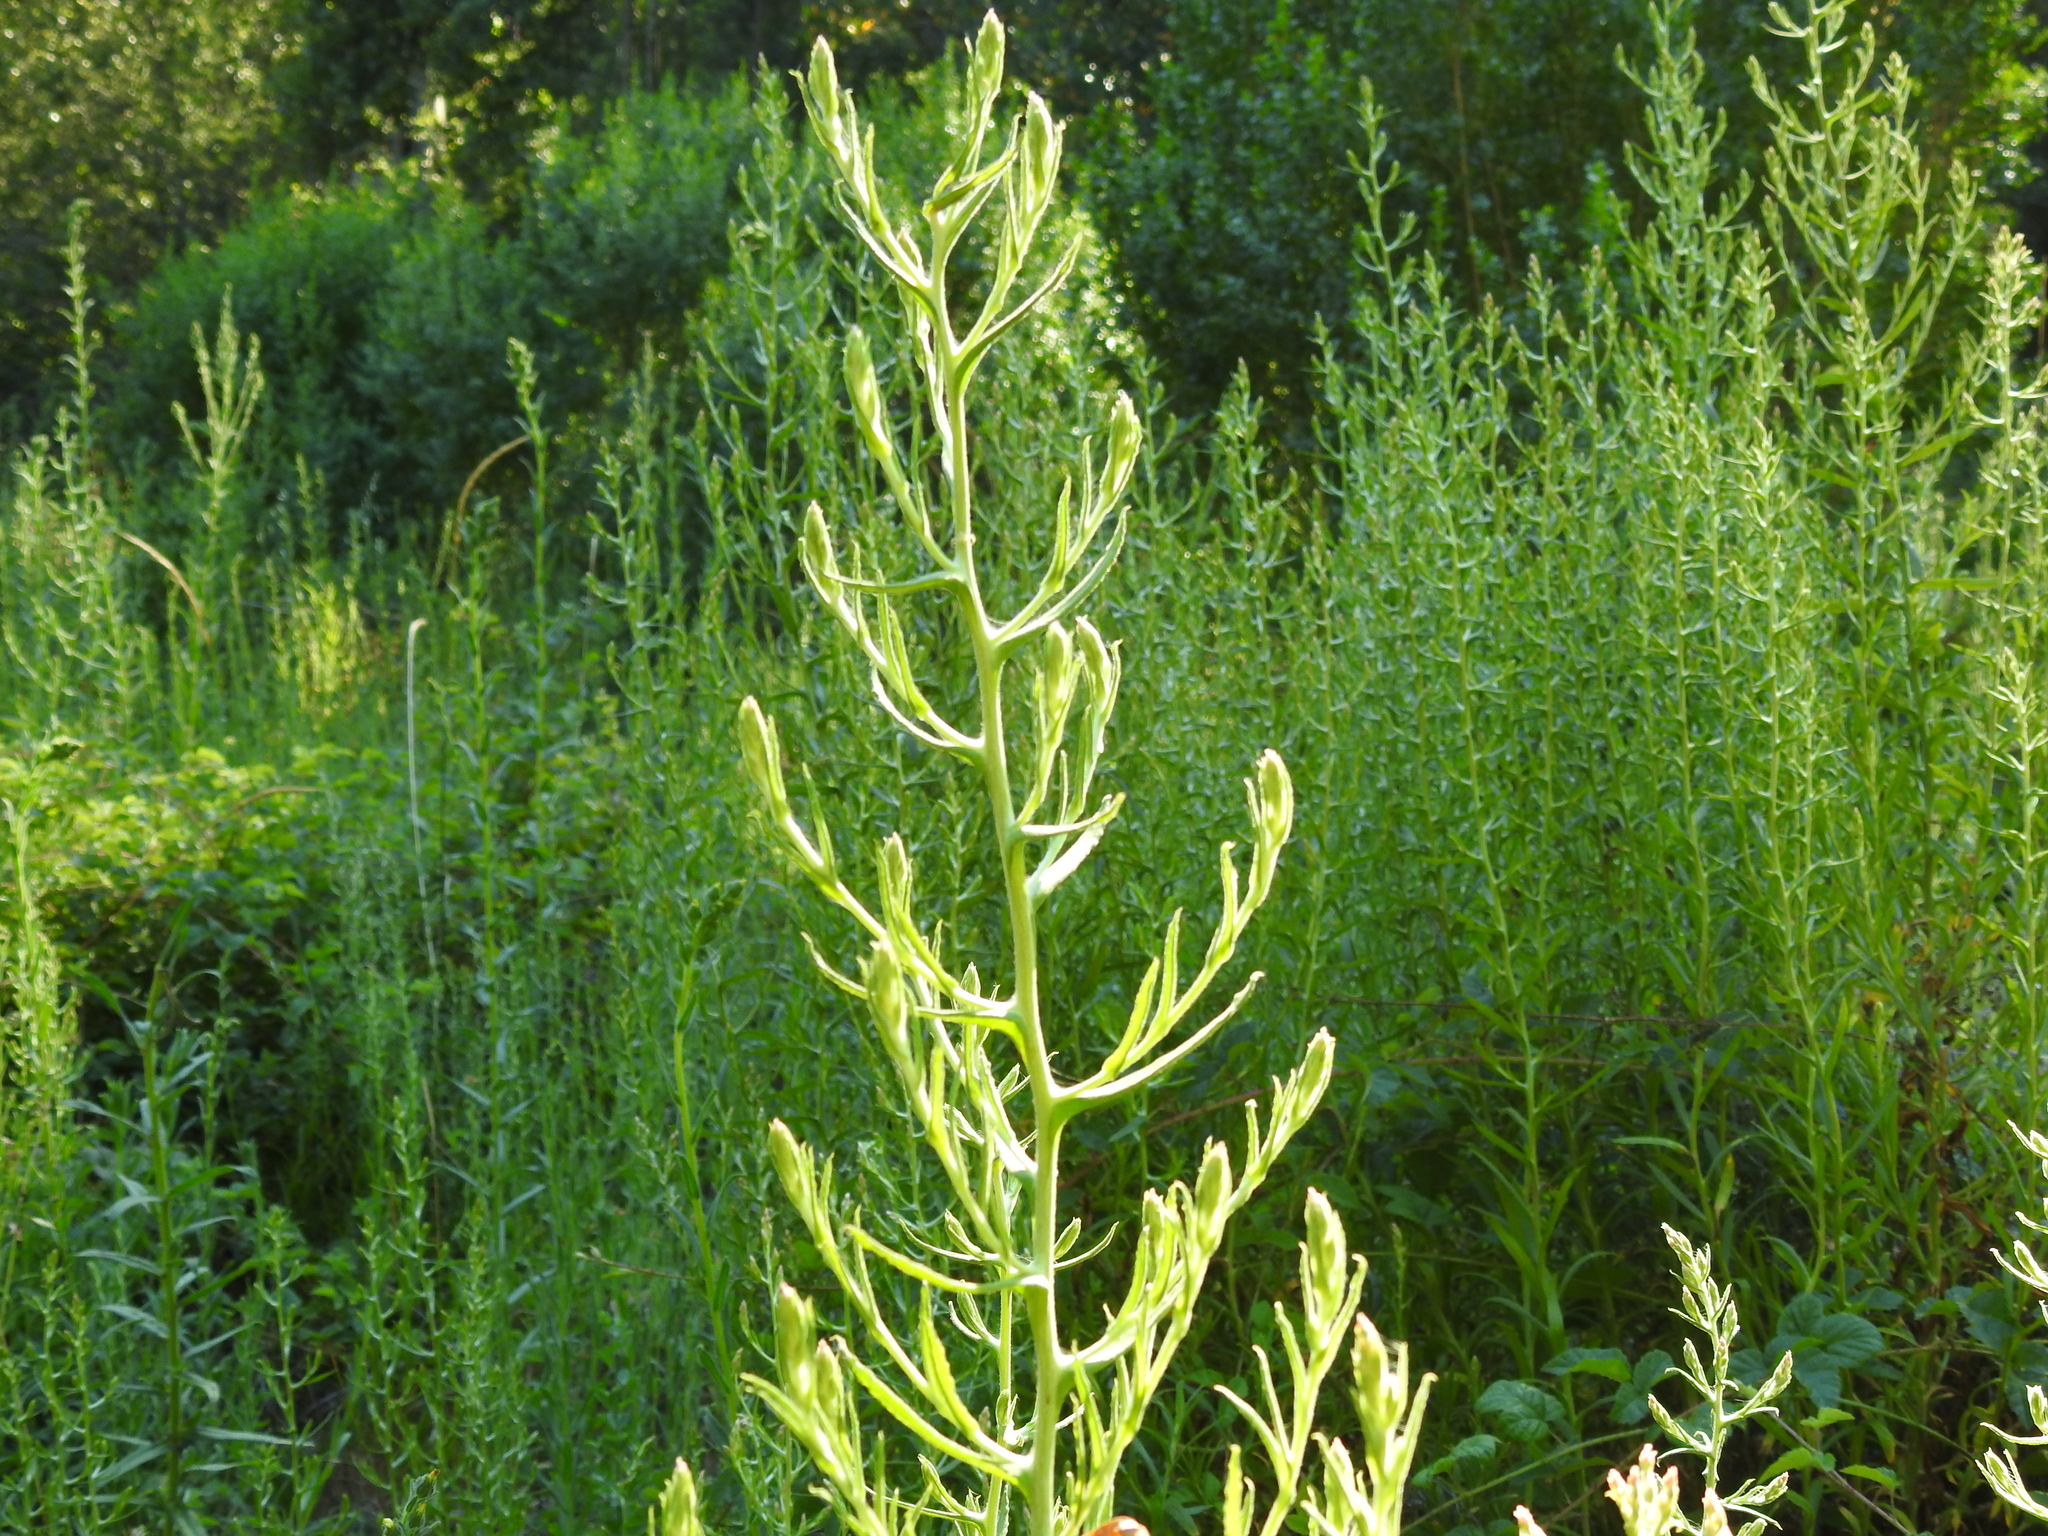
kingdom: Plantae
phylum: Tracheophyta
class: Magnoliopsida
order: Asterales
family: Asteraceae
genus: Pseudognaphalium
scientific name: Pseudognaphalium ramosissimum
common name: Pink rabbit-tobacco
